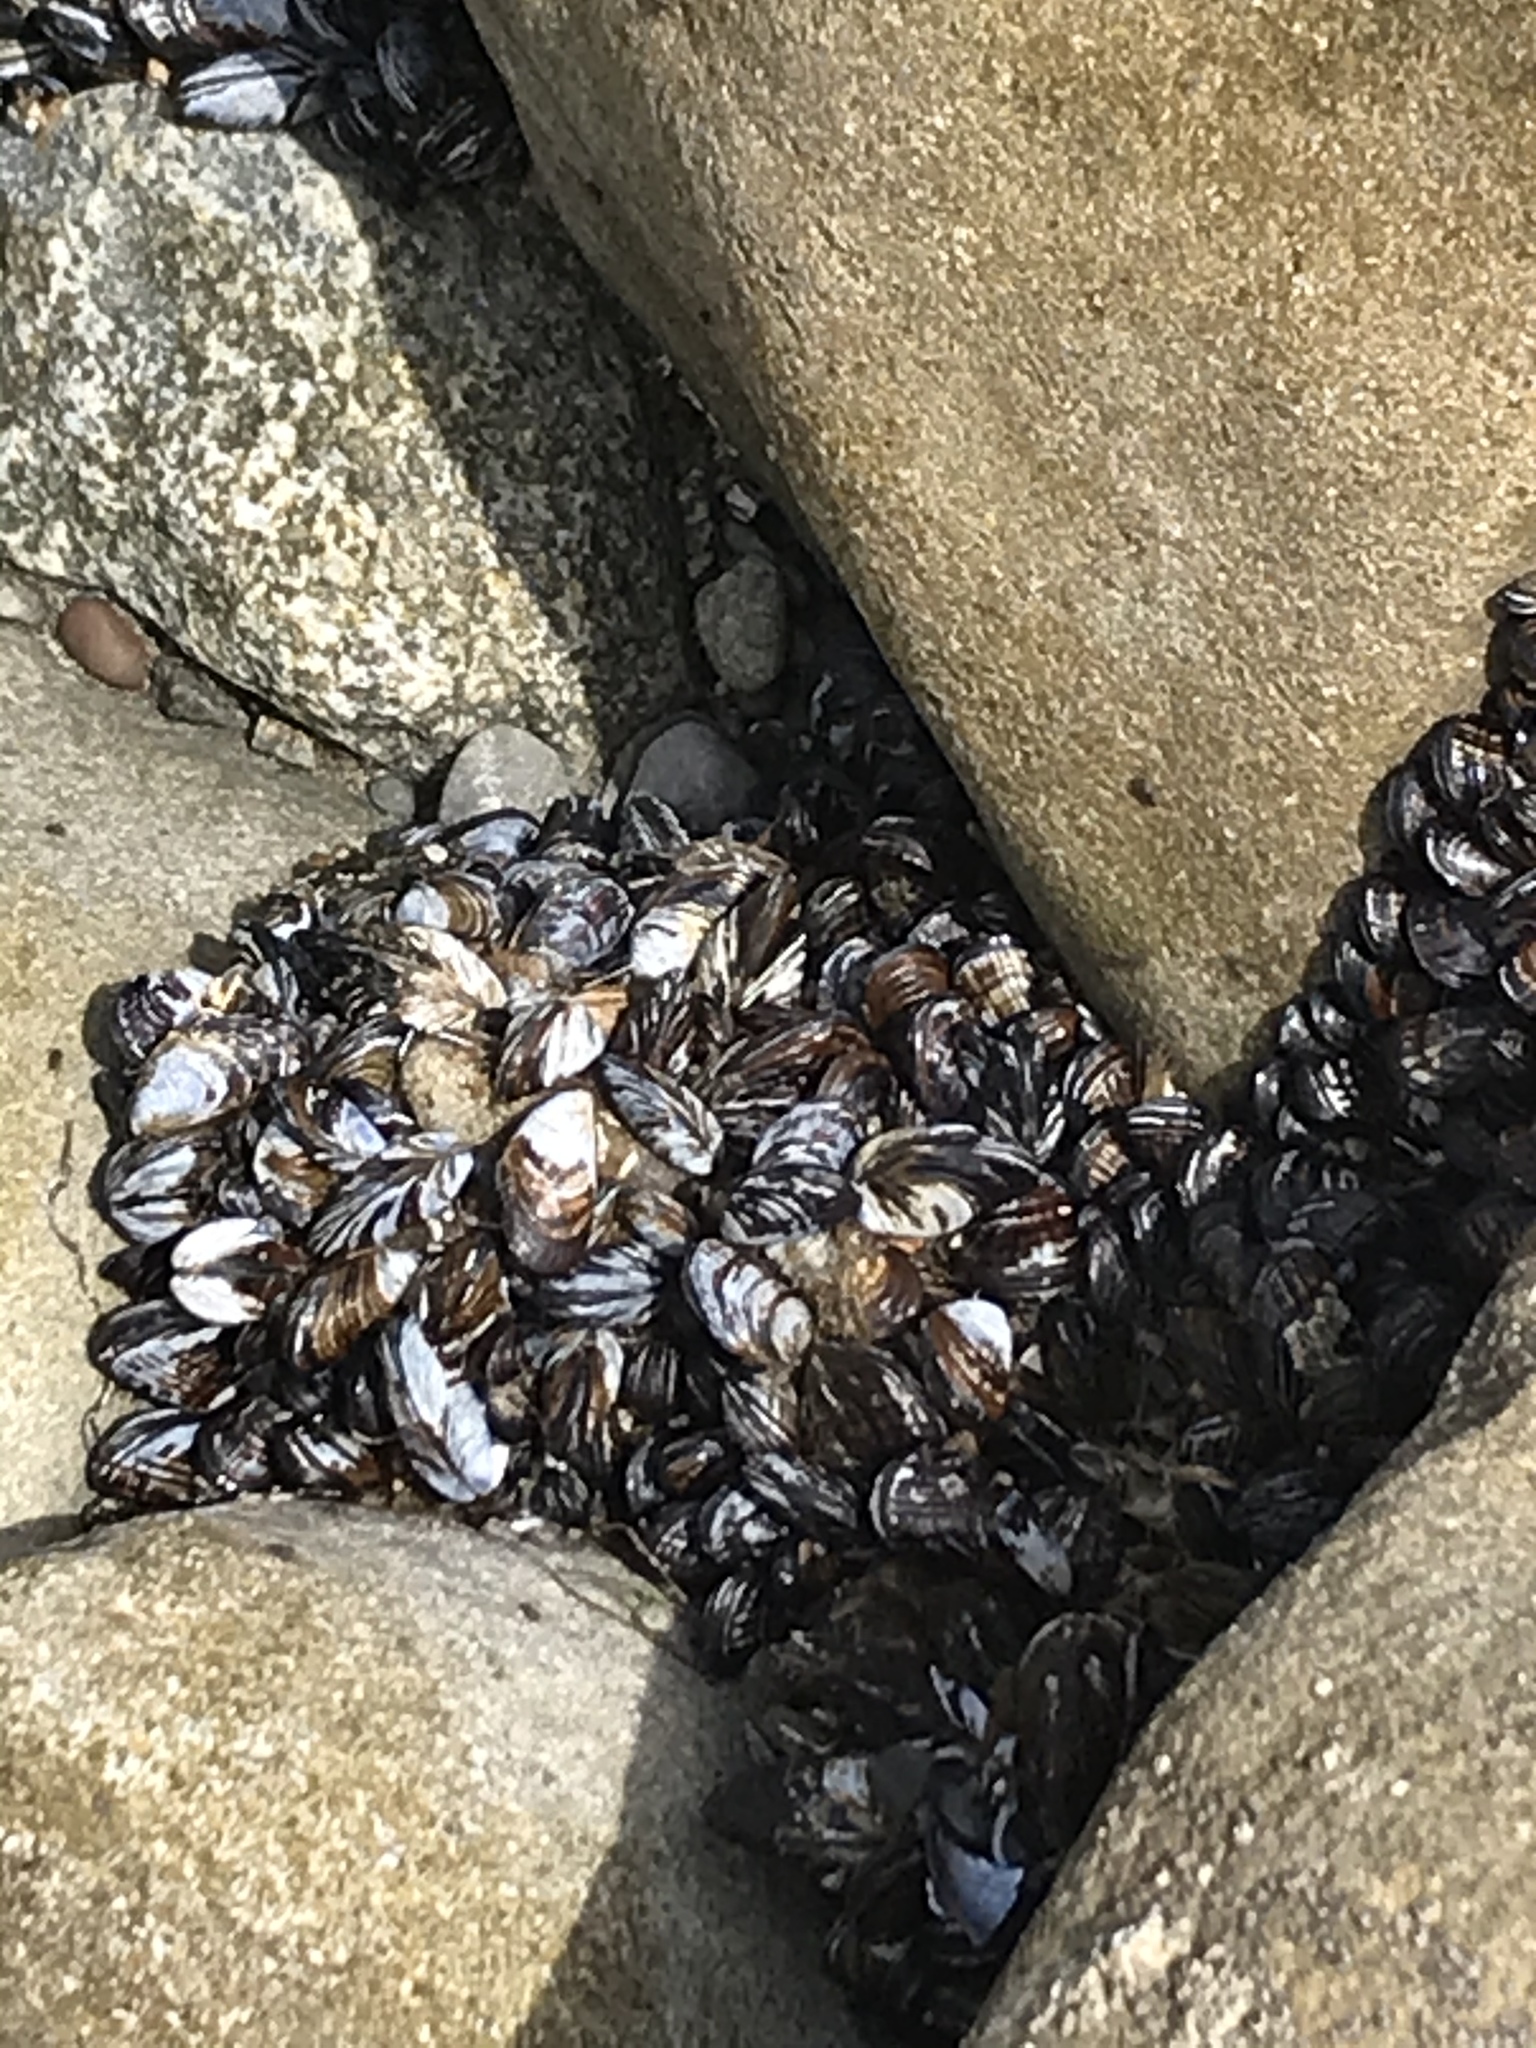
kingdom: Animalia
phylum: Mollusca
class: Bivalvia
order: Mytilida
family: Mytilidae
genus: Mytilus
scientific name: Mytilus californianus
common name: California mussel
